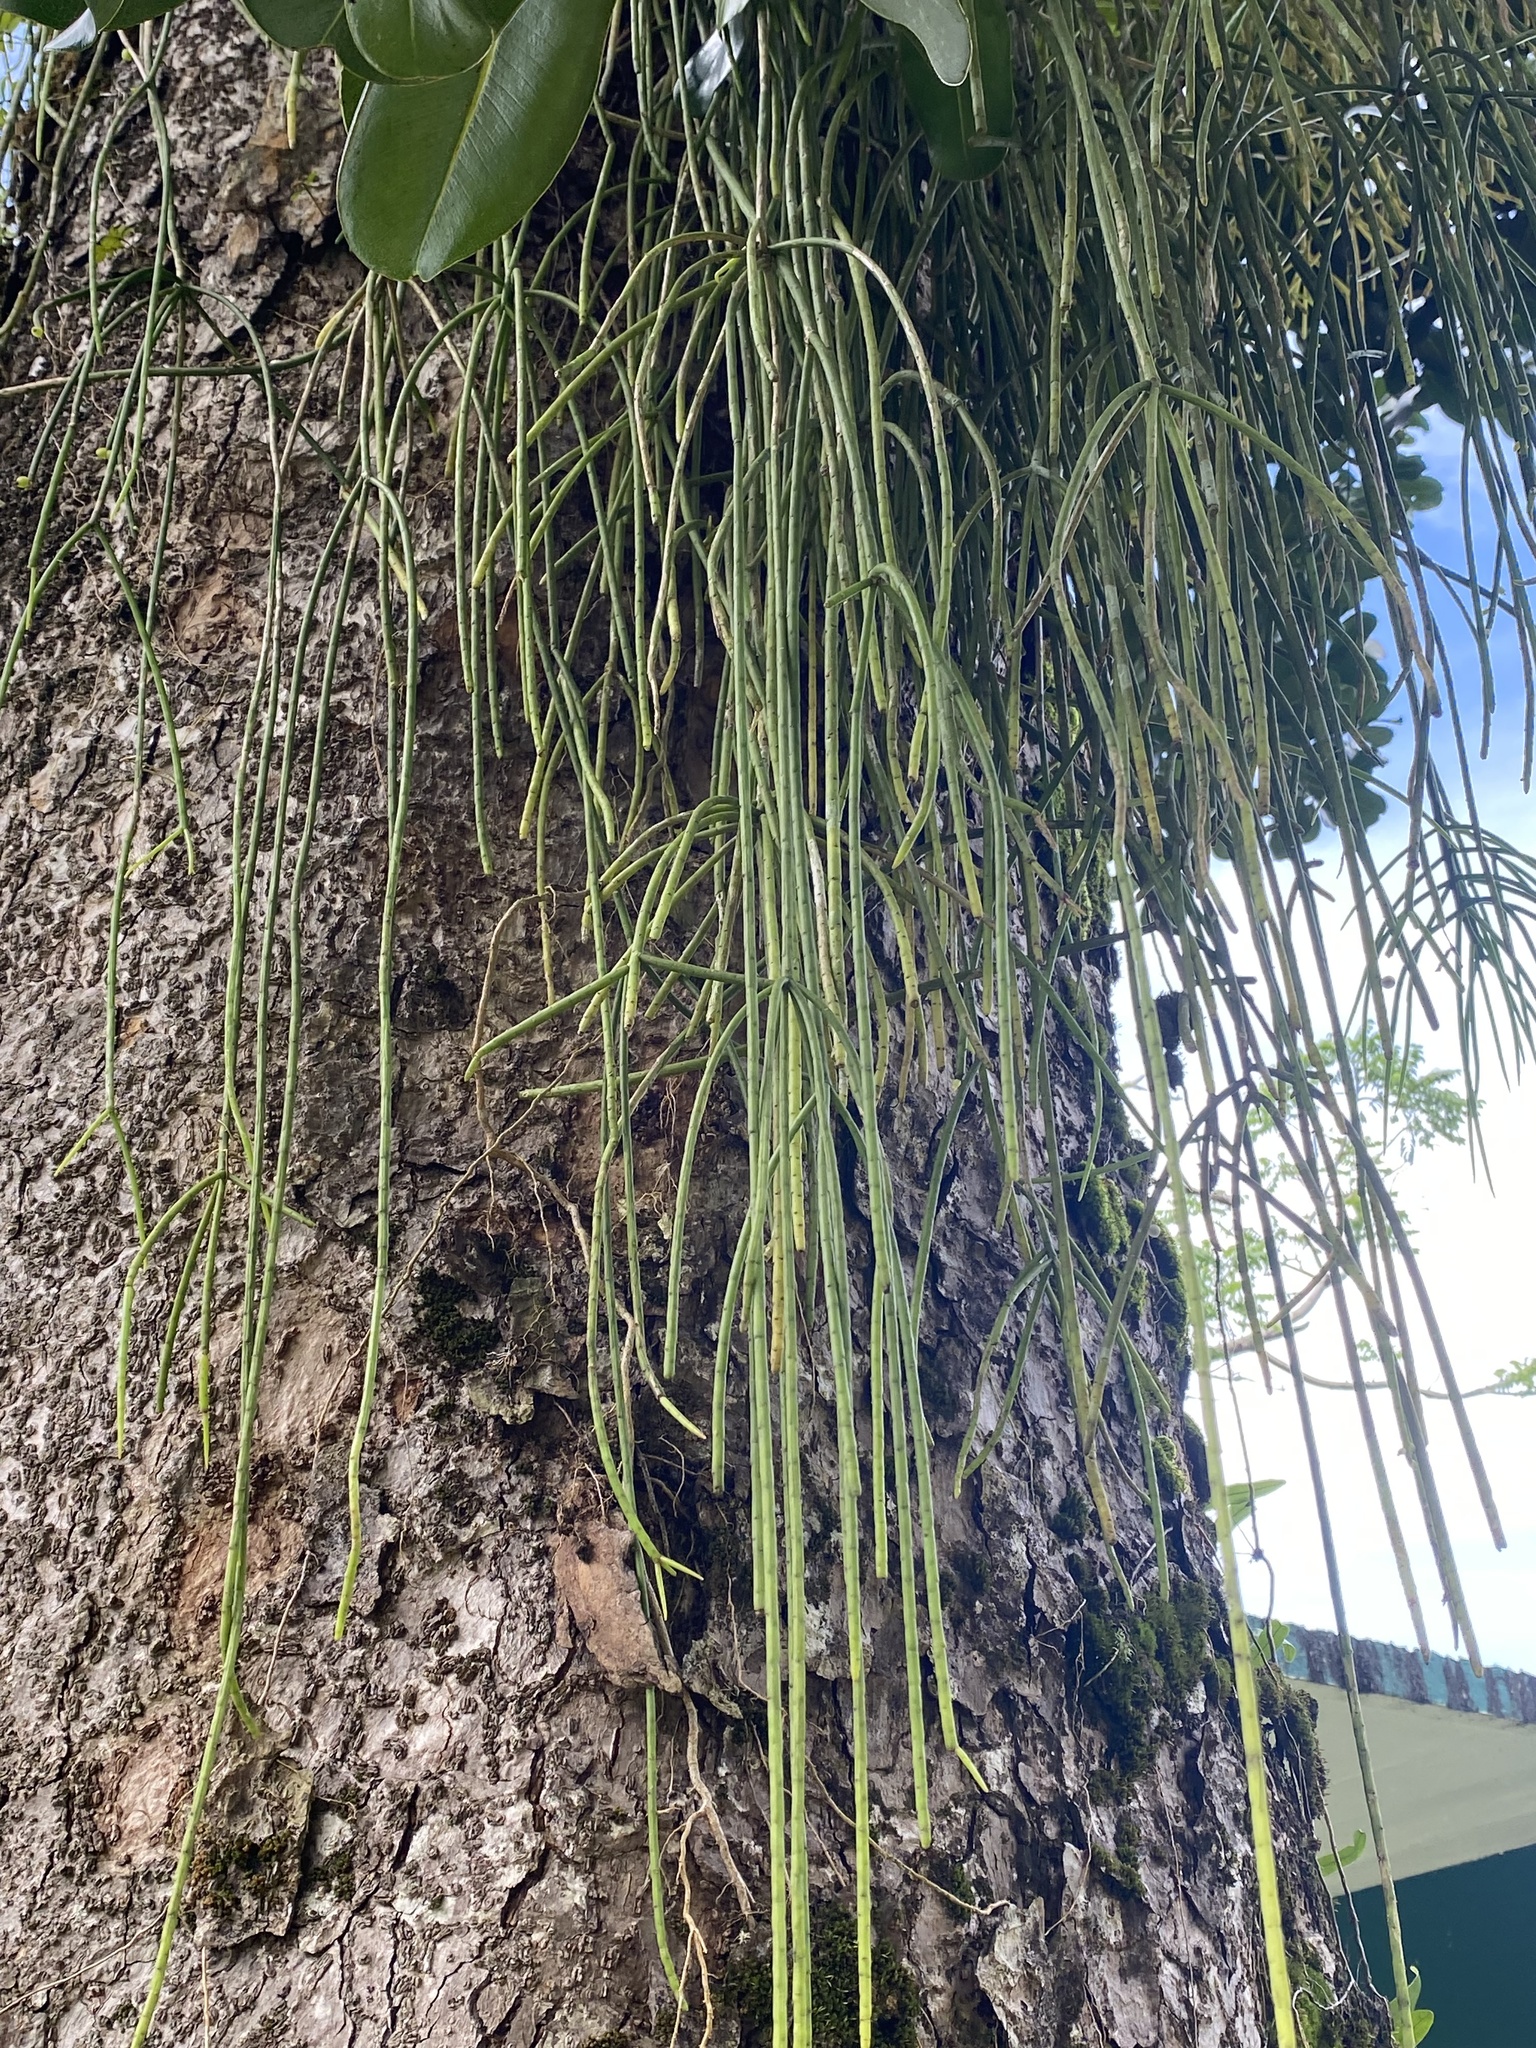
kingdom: Plantae
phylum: Tracheophyta
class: Magnoliopsida
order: Caryophyllales
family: Cactaceae
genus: Rhipsalis
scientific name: Rhipsalis baccifera
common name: Mistletoe cactus
